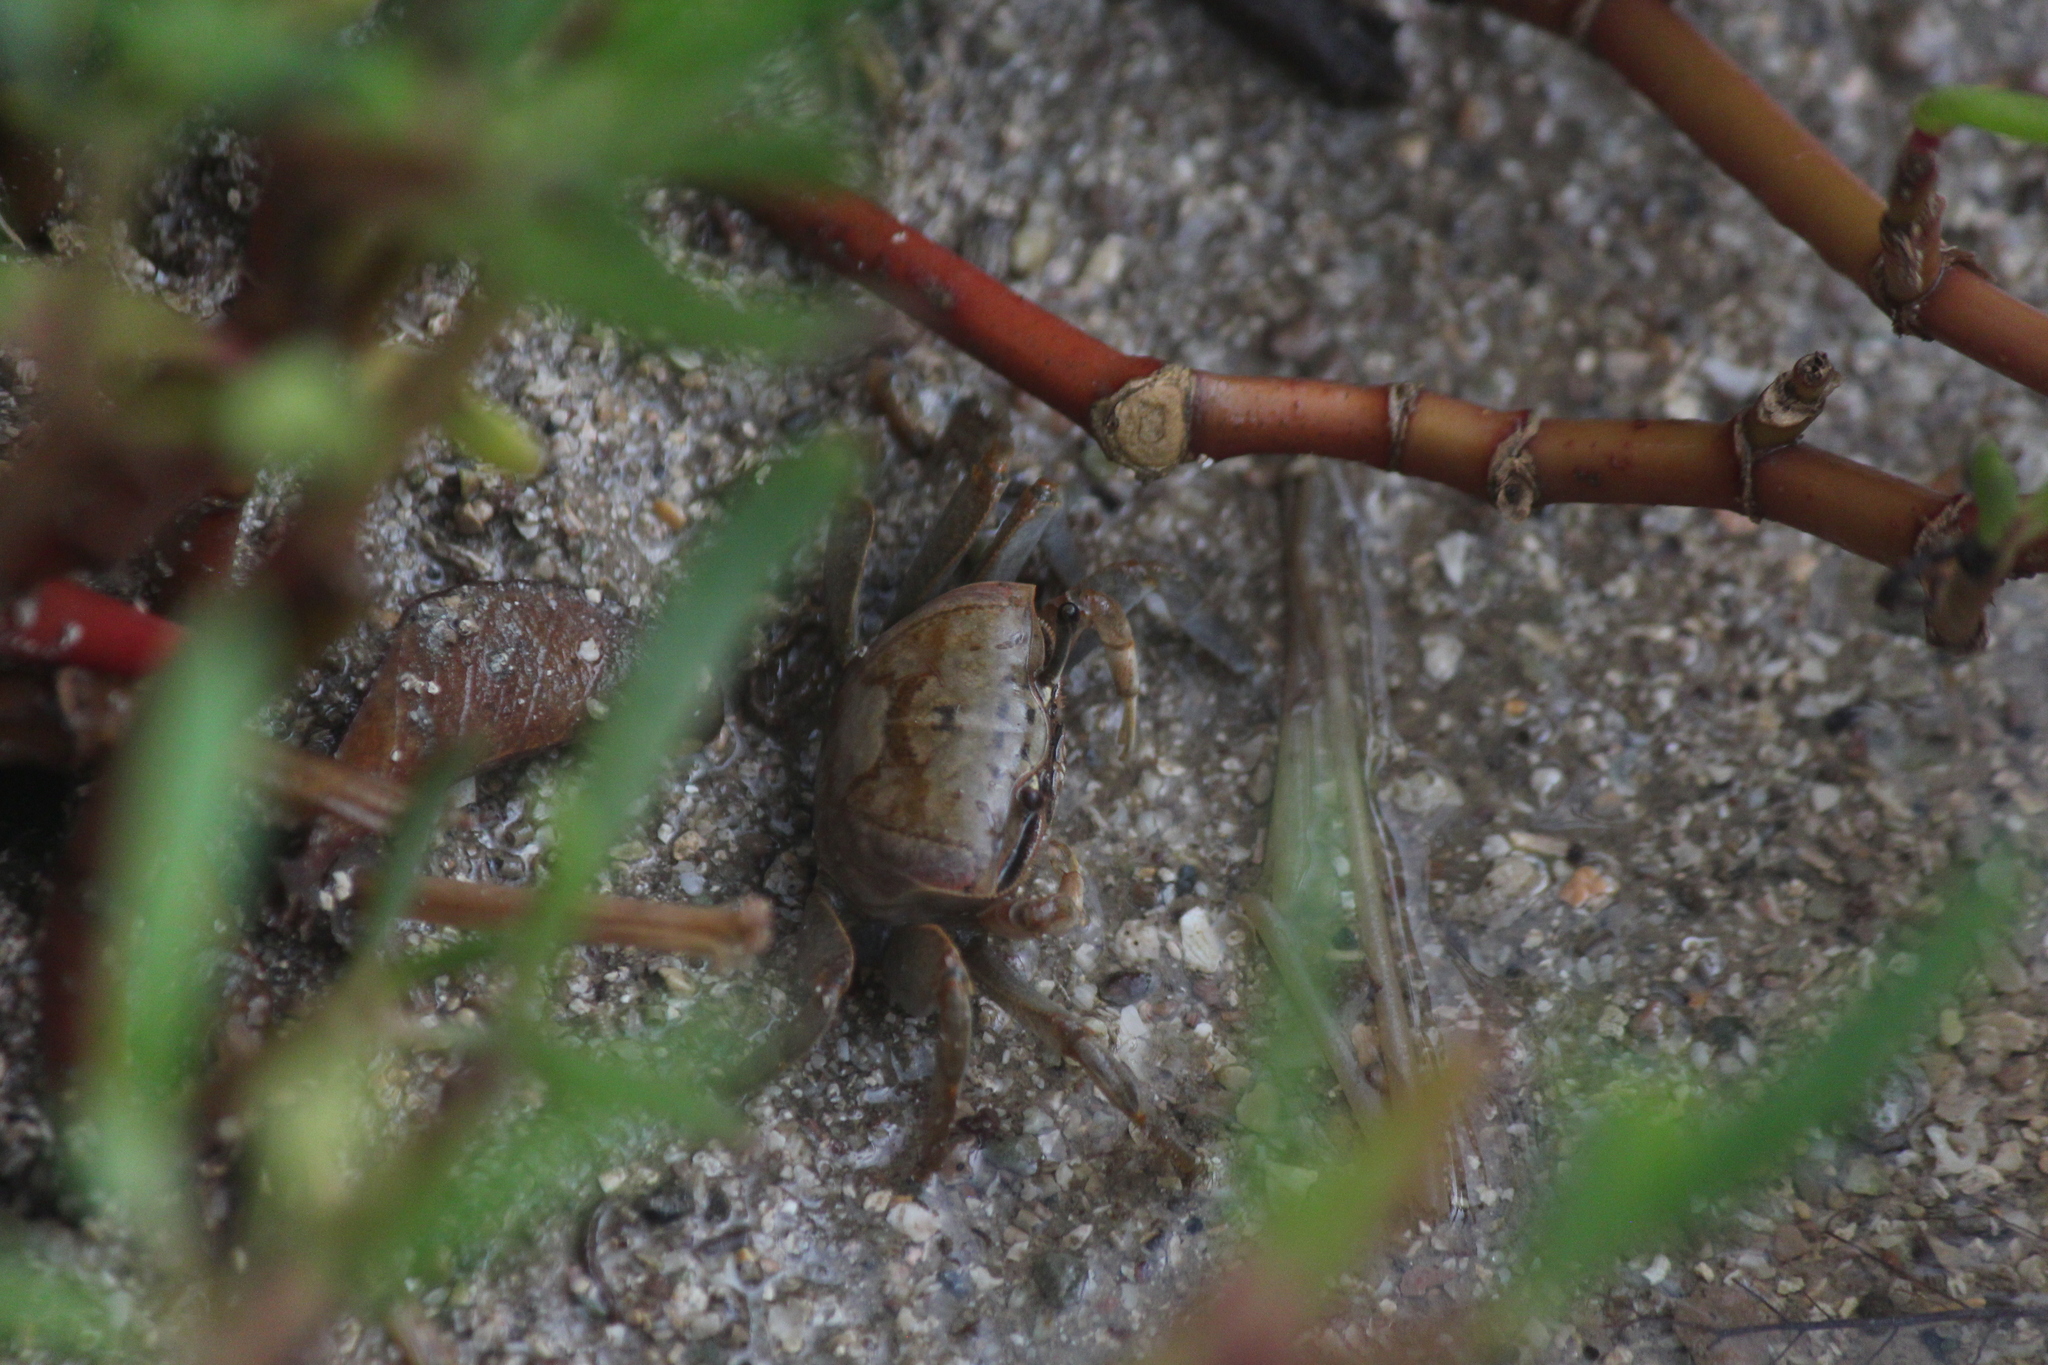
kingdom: Animalia
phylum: Arthropoda
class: Malacostraca
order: Decapoda
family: Ocypodidae
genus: Minuca
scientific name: Minuca galapagensis
